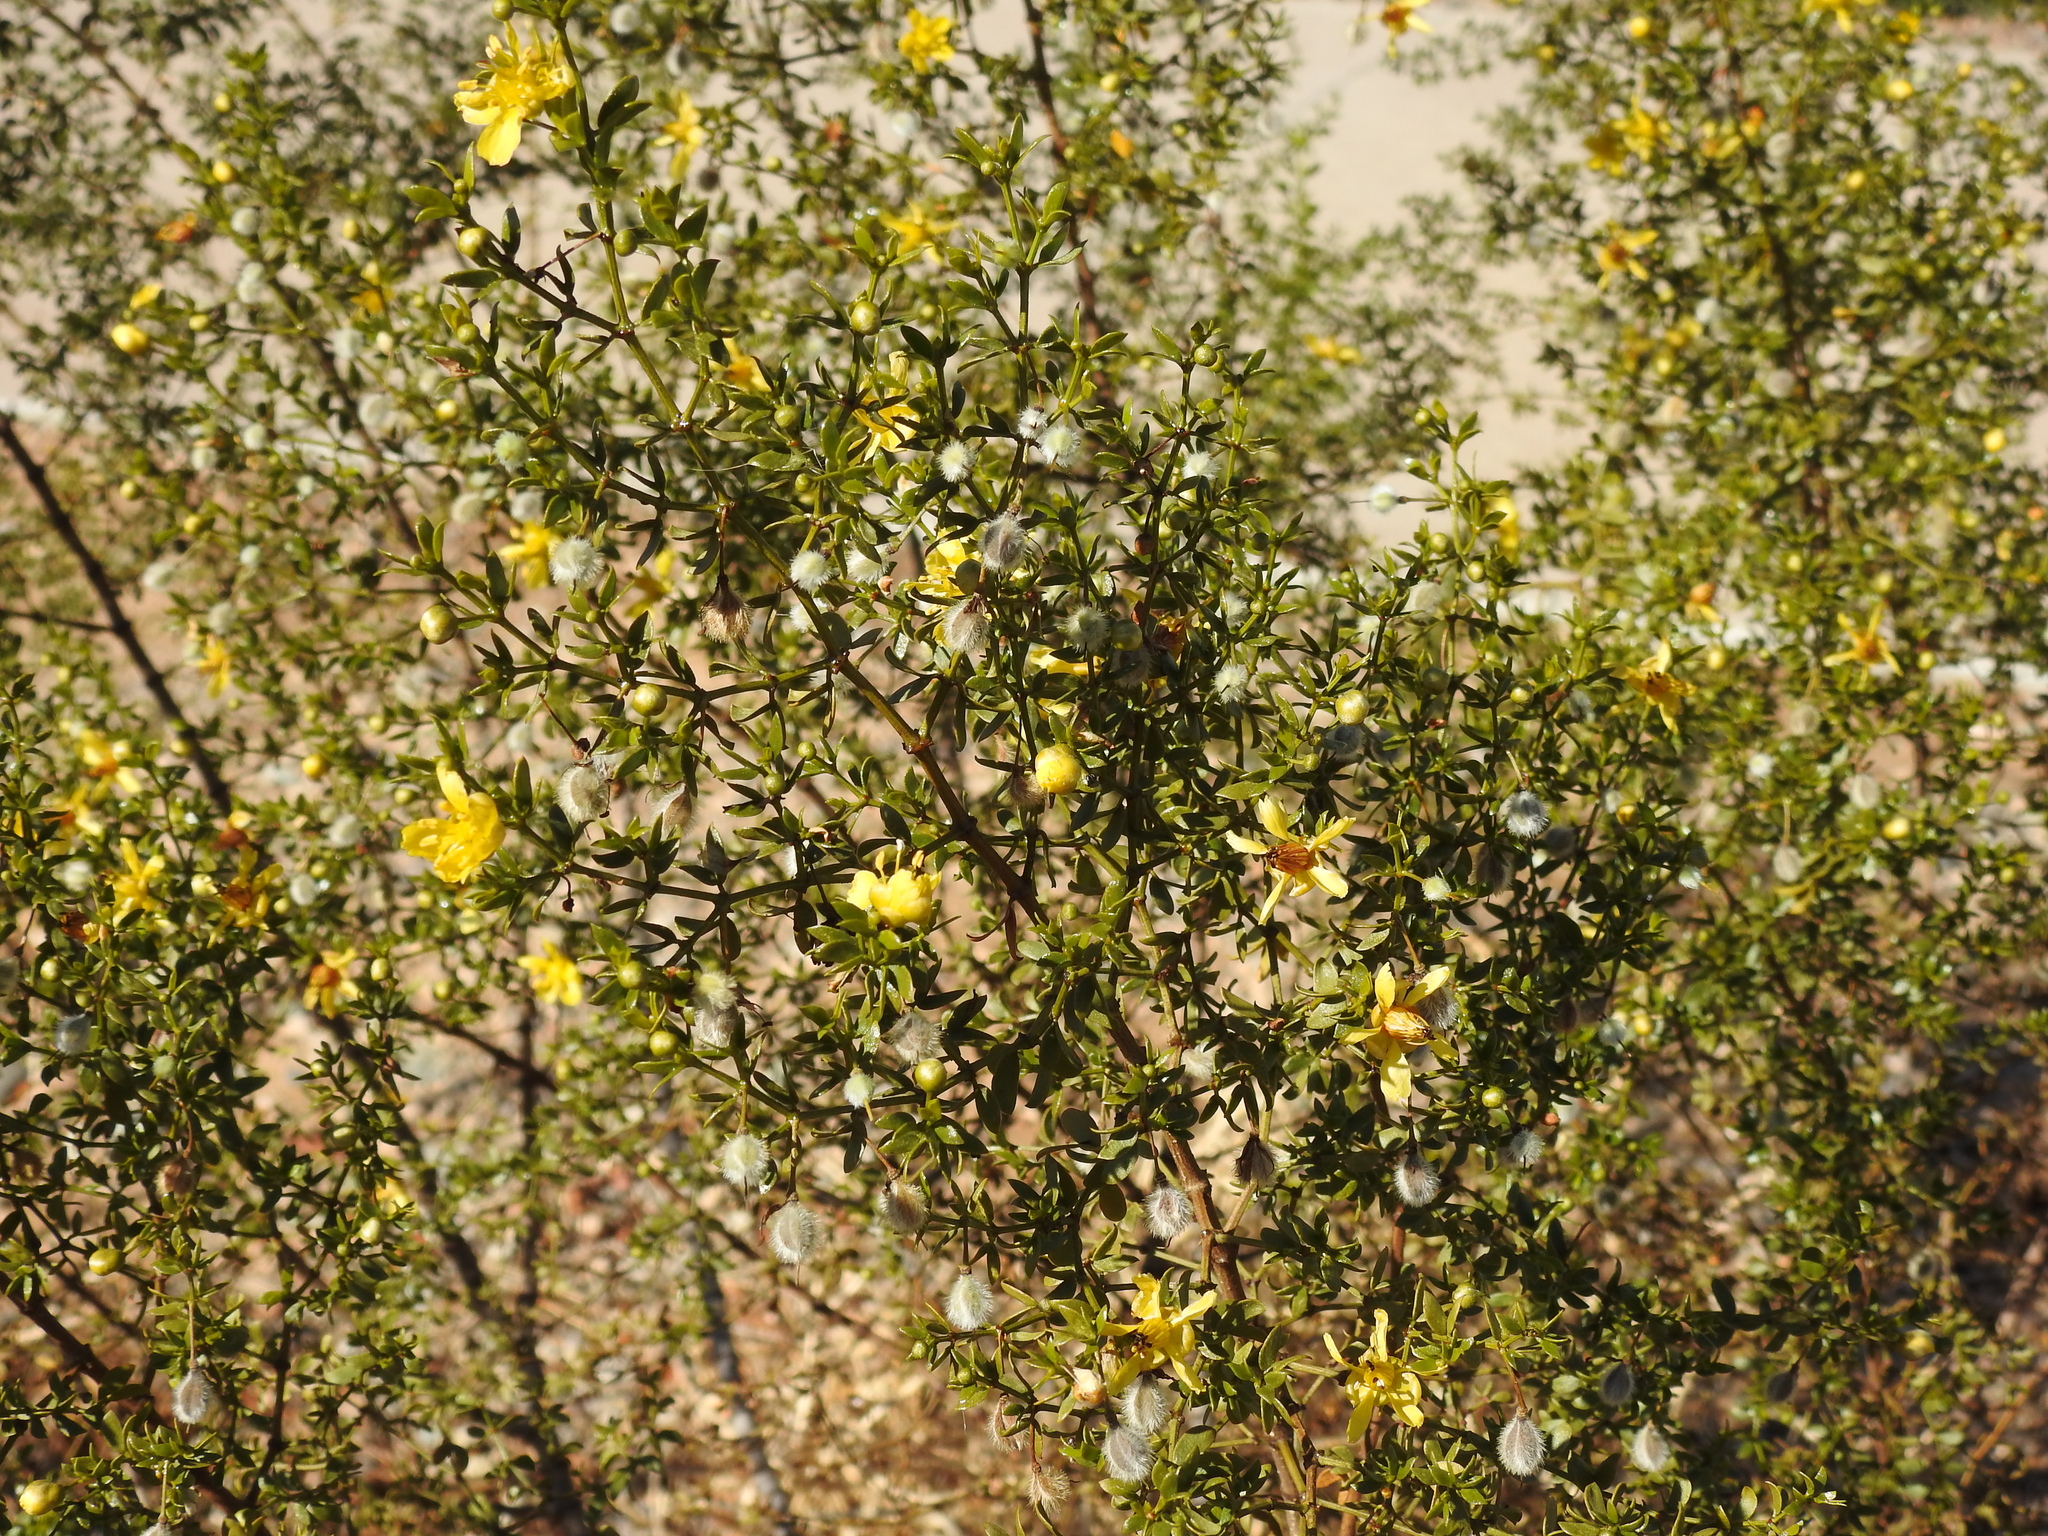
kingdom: Plantae
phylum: Tracheophyta
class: Magnoliopsida
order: Zygophyllales
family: Zygophyllaceae
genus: Larrea
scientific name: Larrea tridentata
